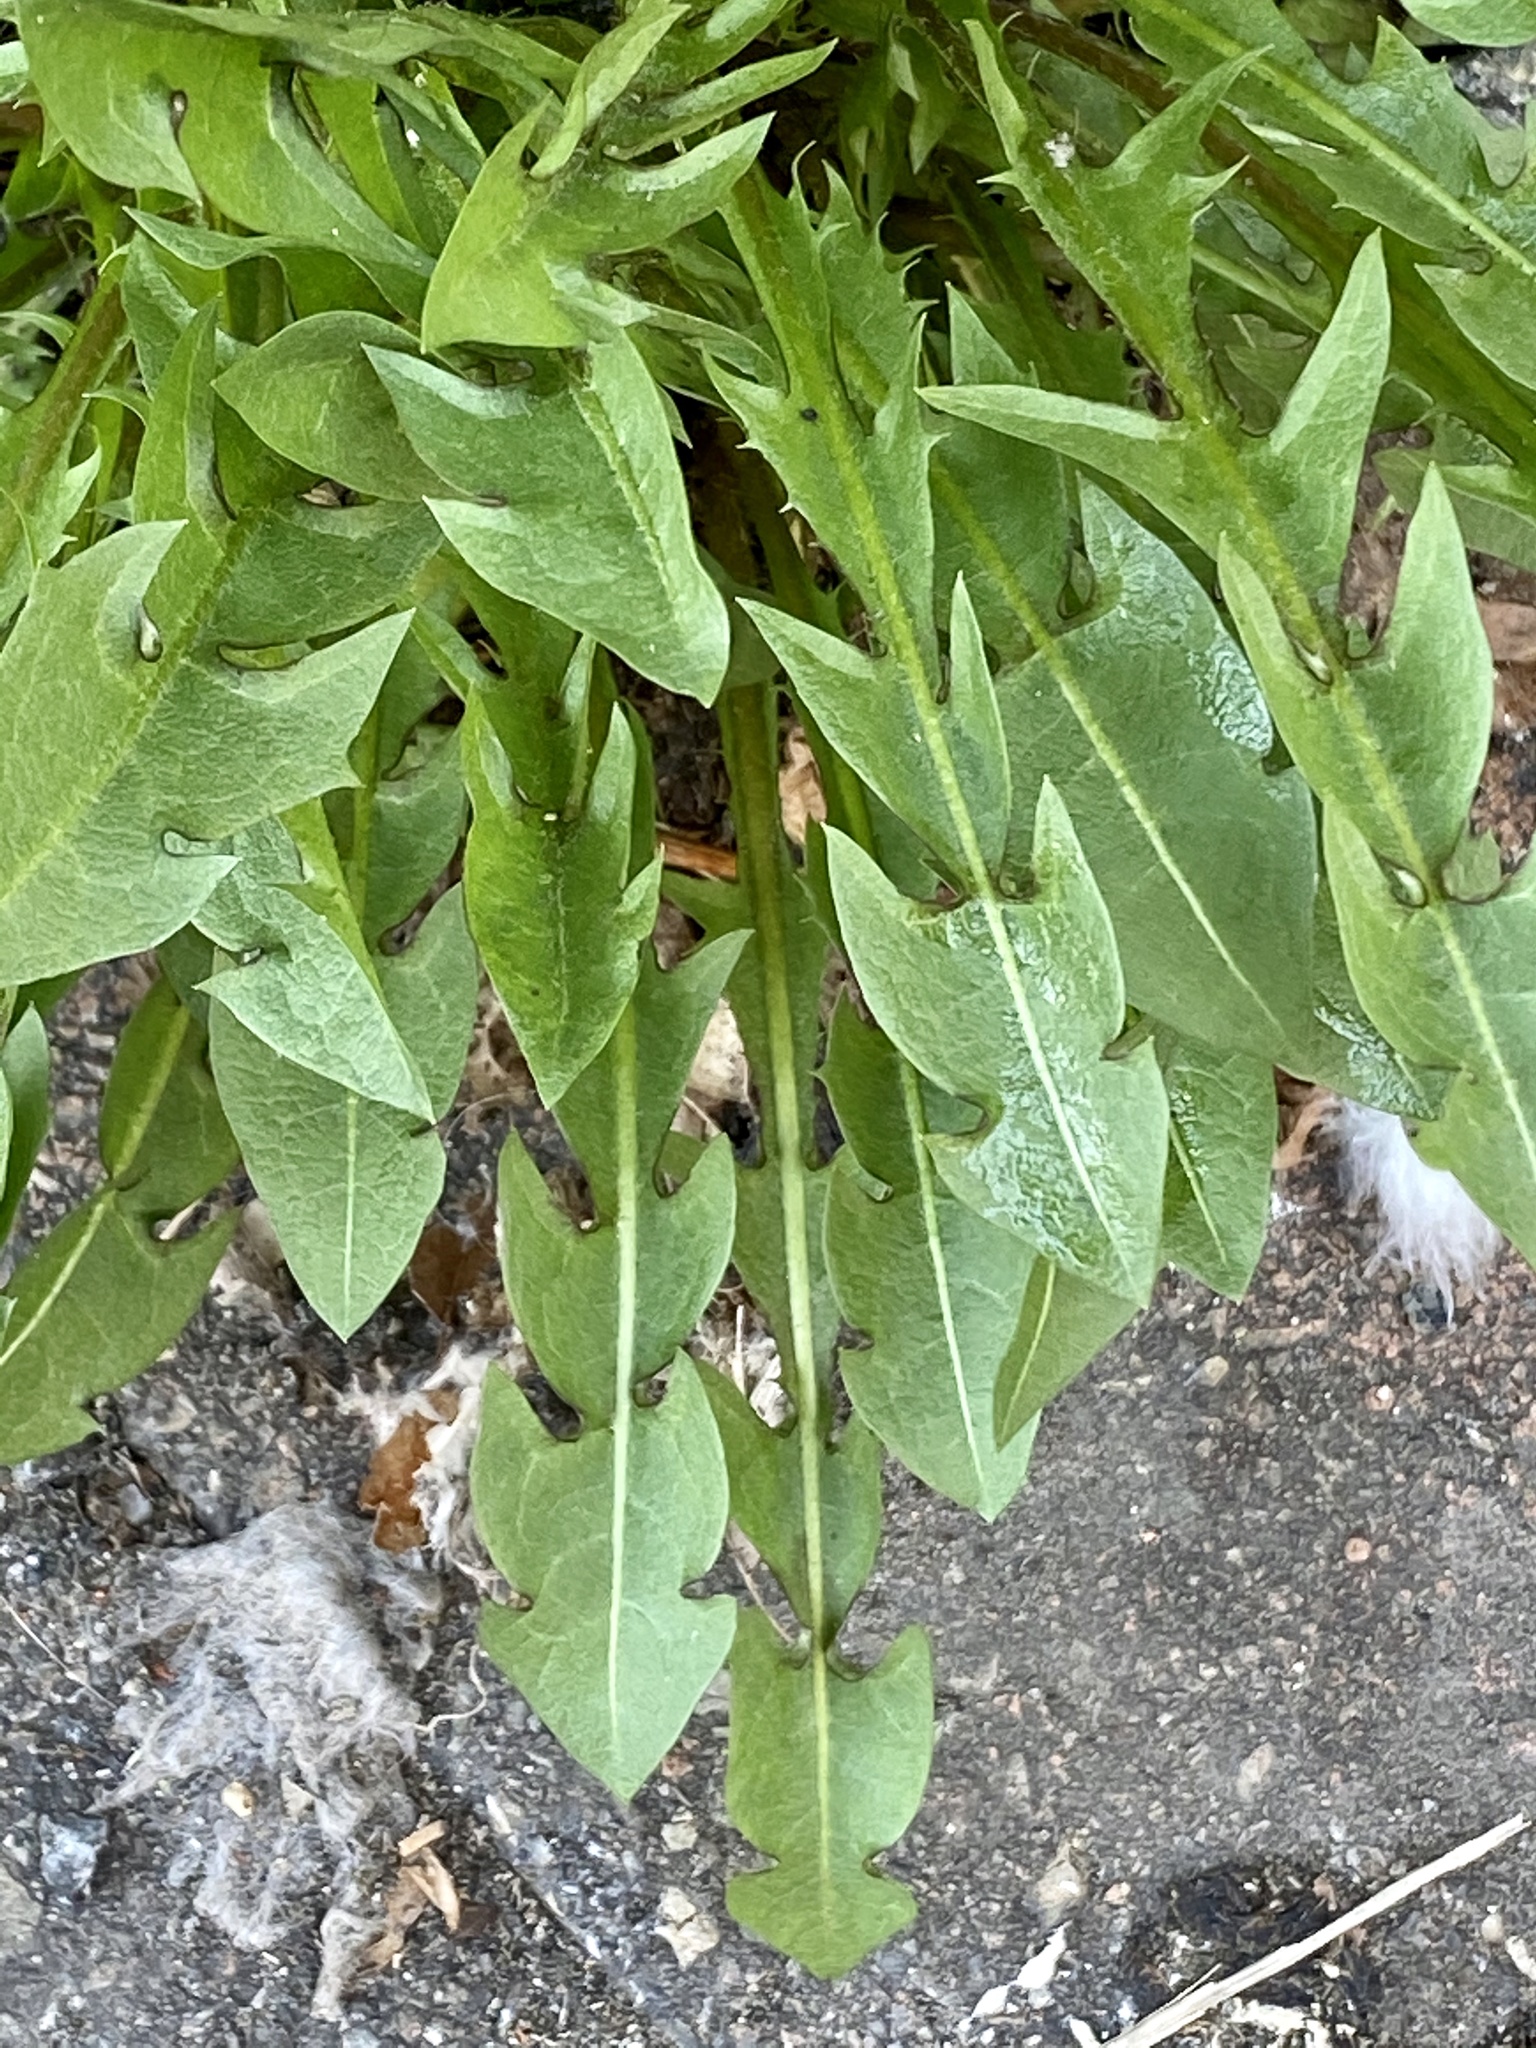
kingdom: Plantae
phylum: Tracheophyta
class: Magnoliopsida
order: Asterales
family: Asteraceae
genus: Taraxacum
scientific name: Taraxacum officinale
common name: Common dandelion
